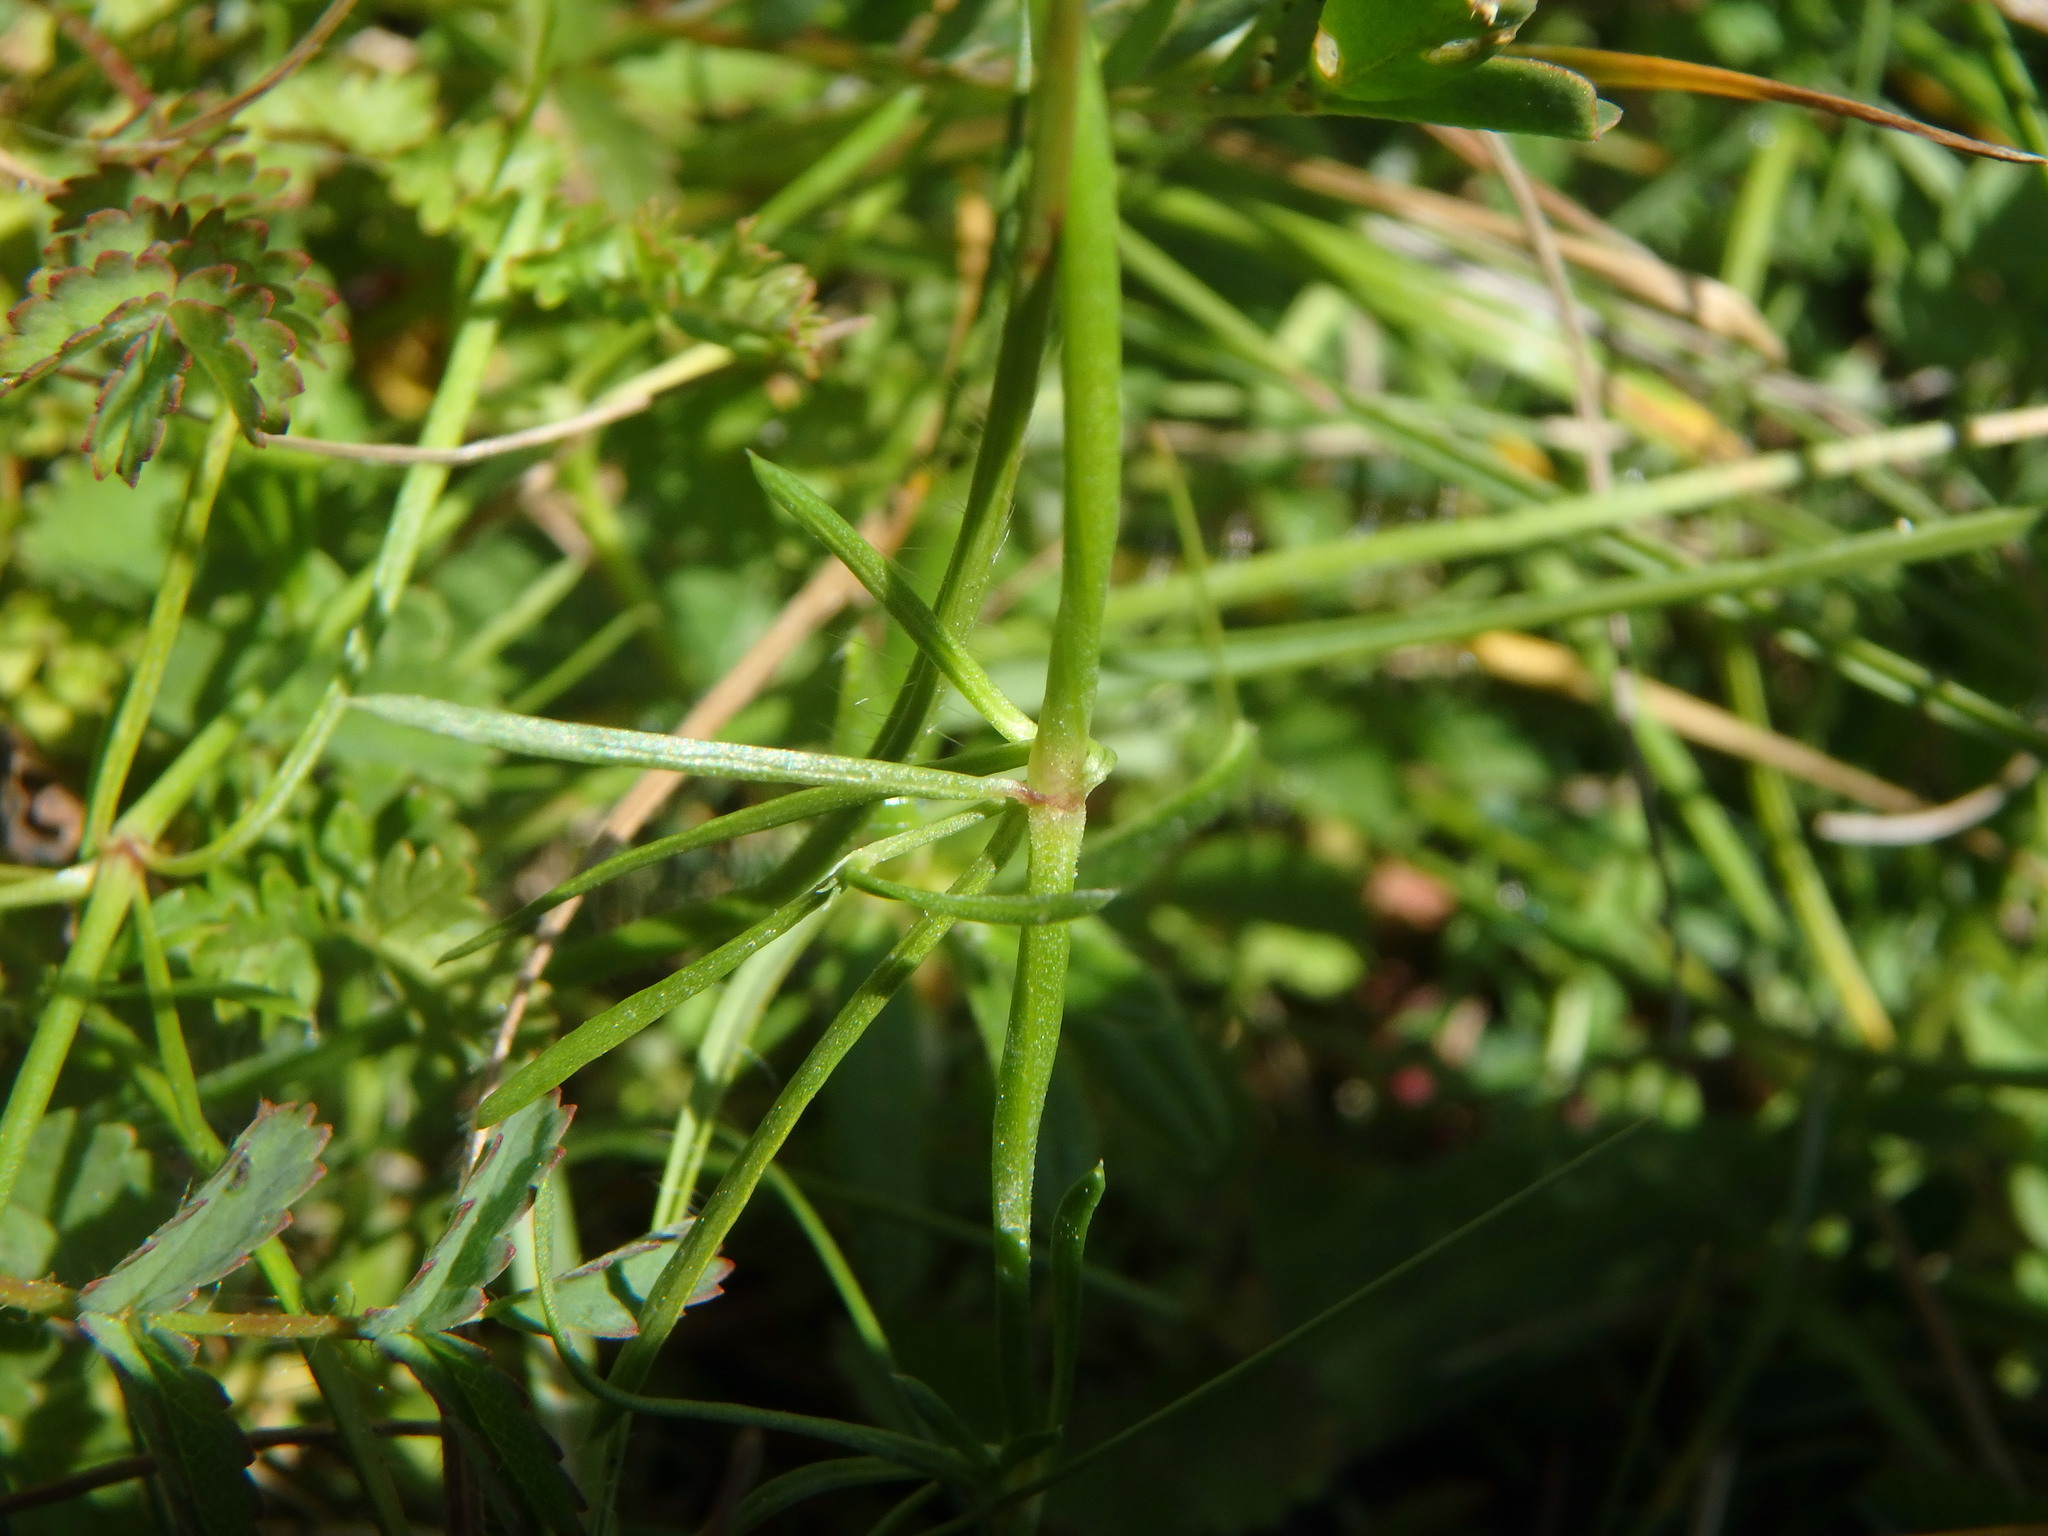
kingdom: Plantae
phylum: Tracheophyta
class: Magnoliopsida
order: Gentianales
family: Rubiaceae
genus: Cynanchica
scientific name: Cynanchica pyrenaica
